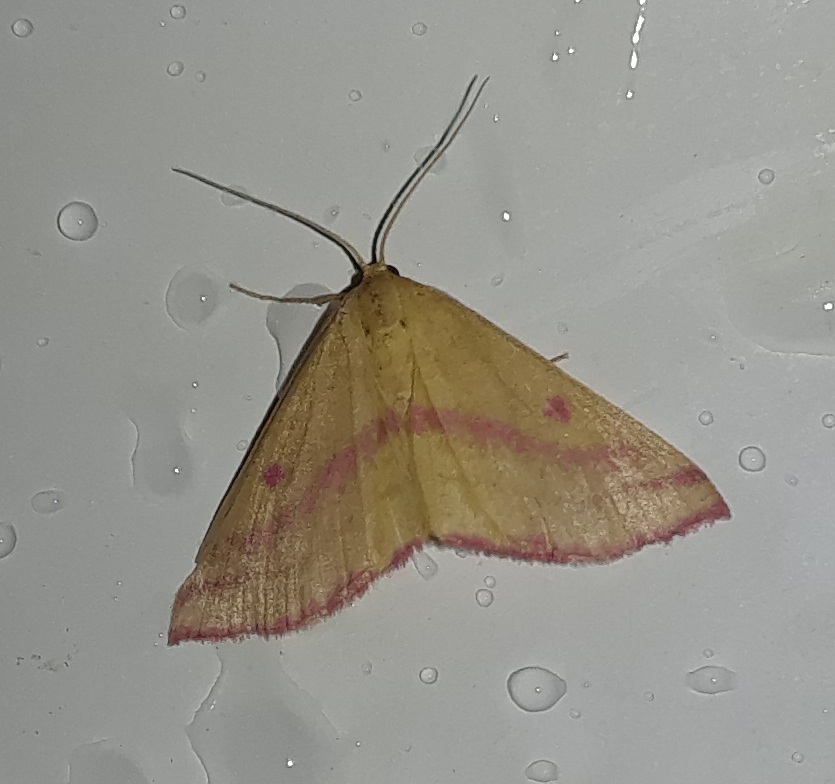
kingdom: Animalia
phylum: Arthropoda
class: Insecta
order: Lepidoptera
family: Geometridae
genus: Haematopis
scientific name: Haematopis grataria
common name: Chickweed geometer
